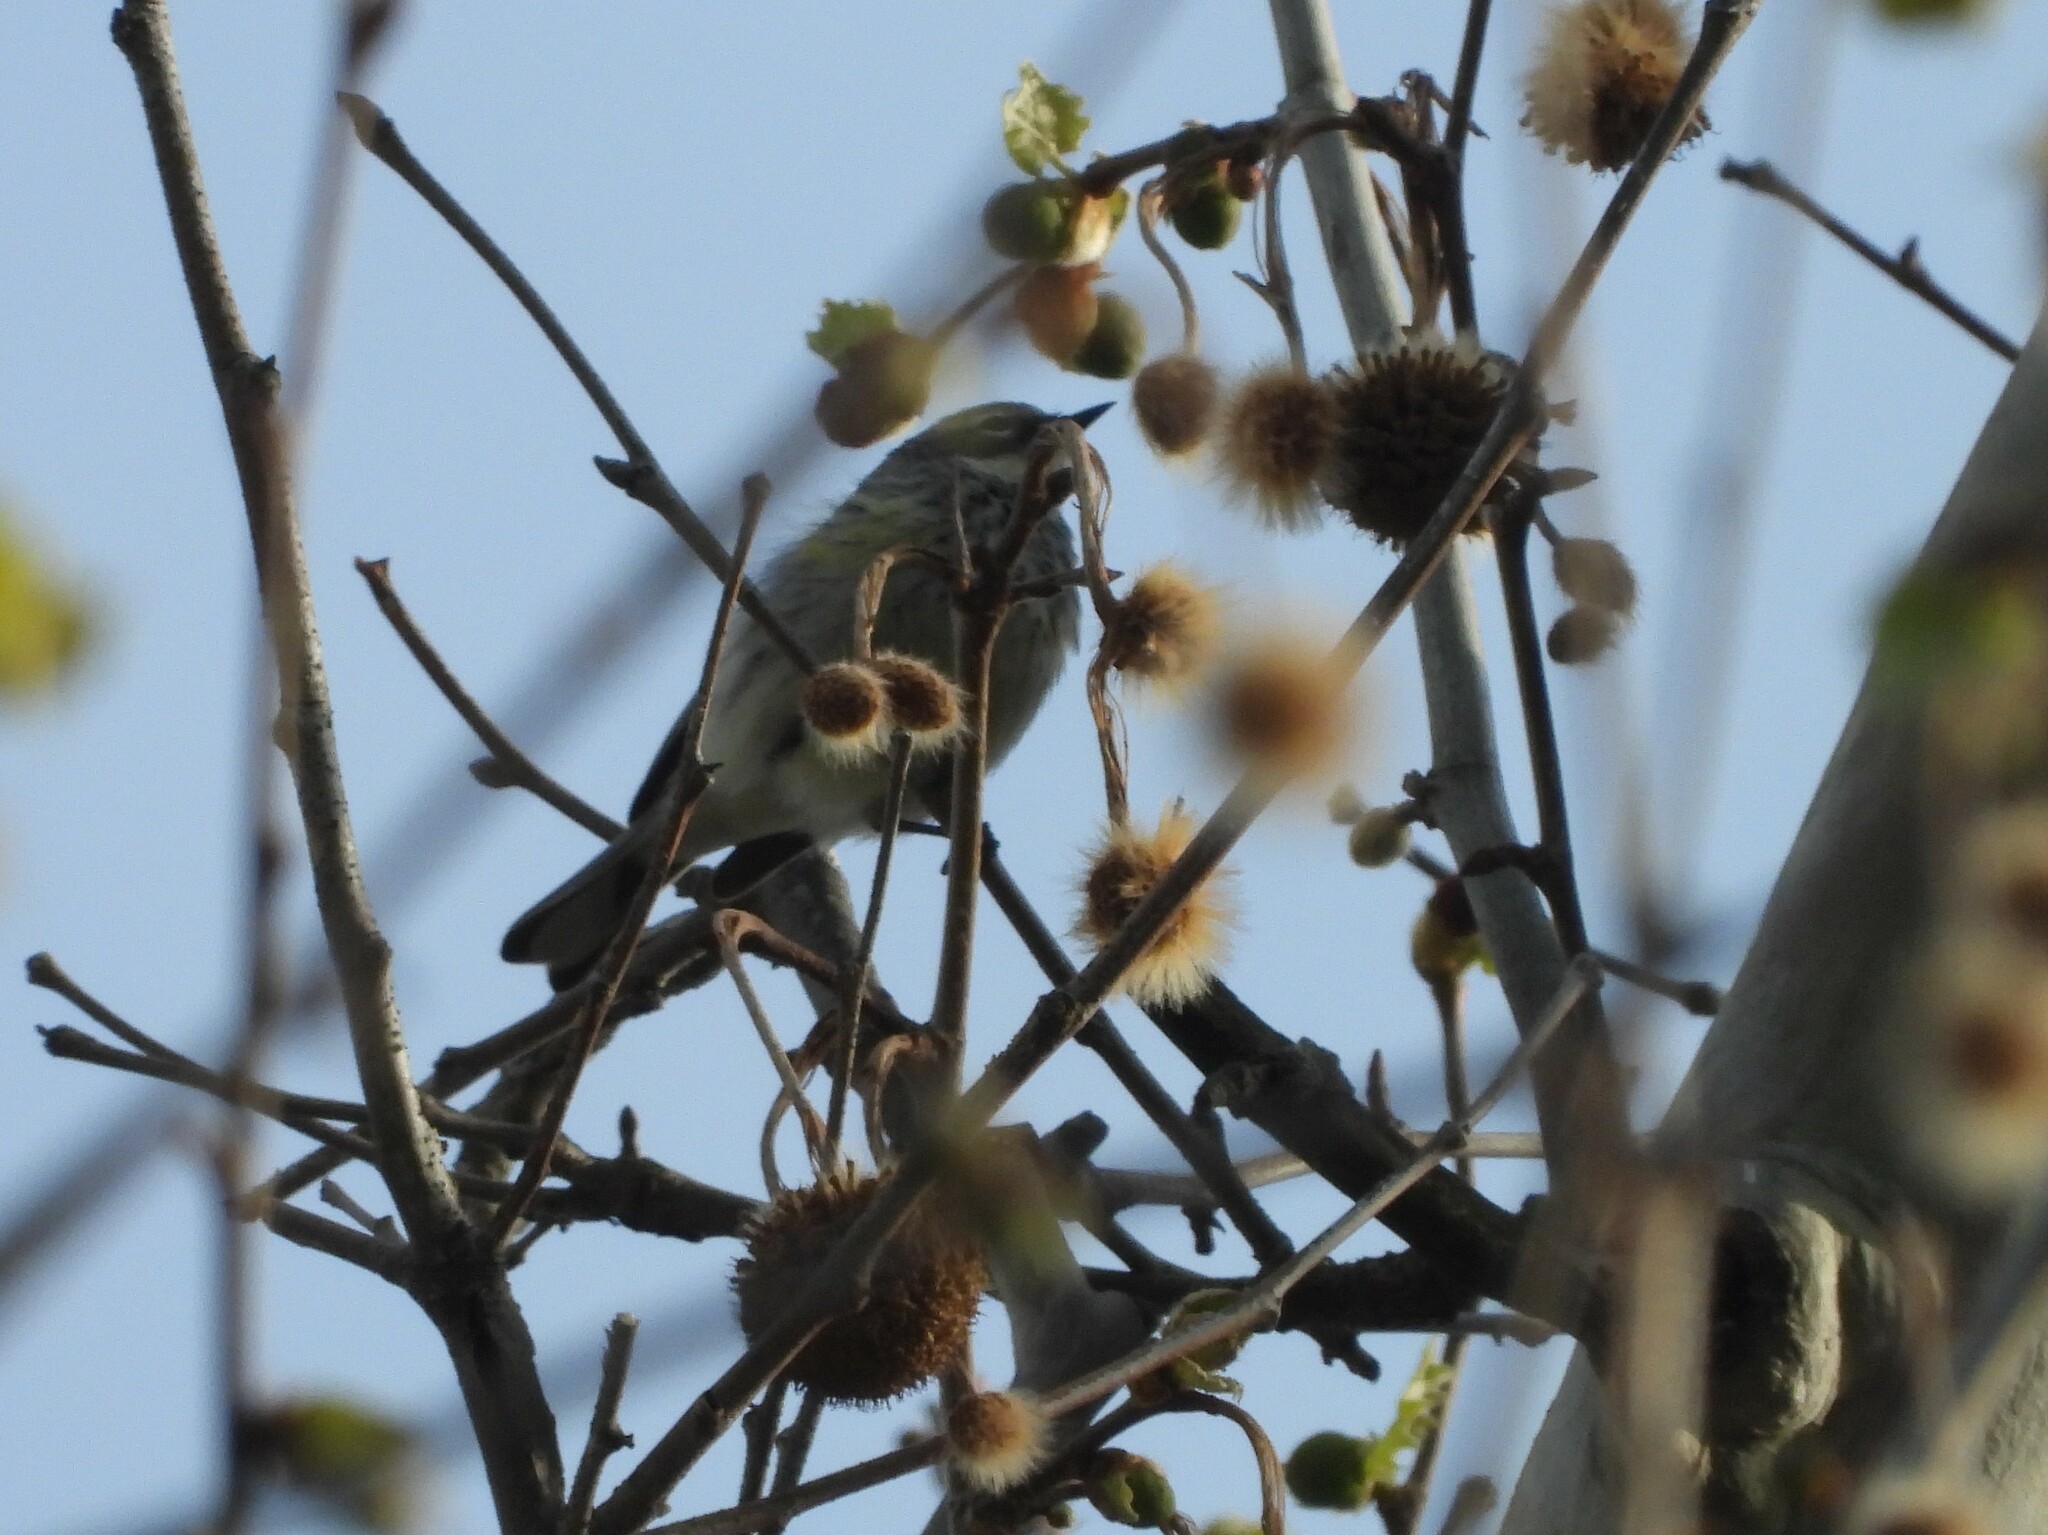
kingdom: Animalia
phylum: Chordata
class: Aves
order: Passeriformes
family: Parulidae
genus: Setophaga
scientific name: Setophaga coronata
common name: Myrtle warbler
